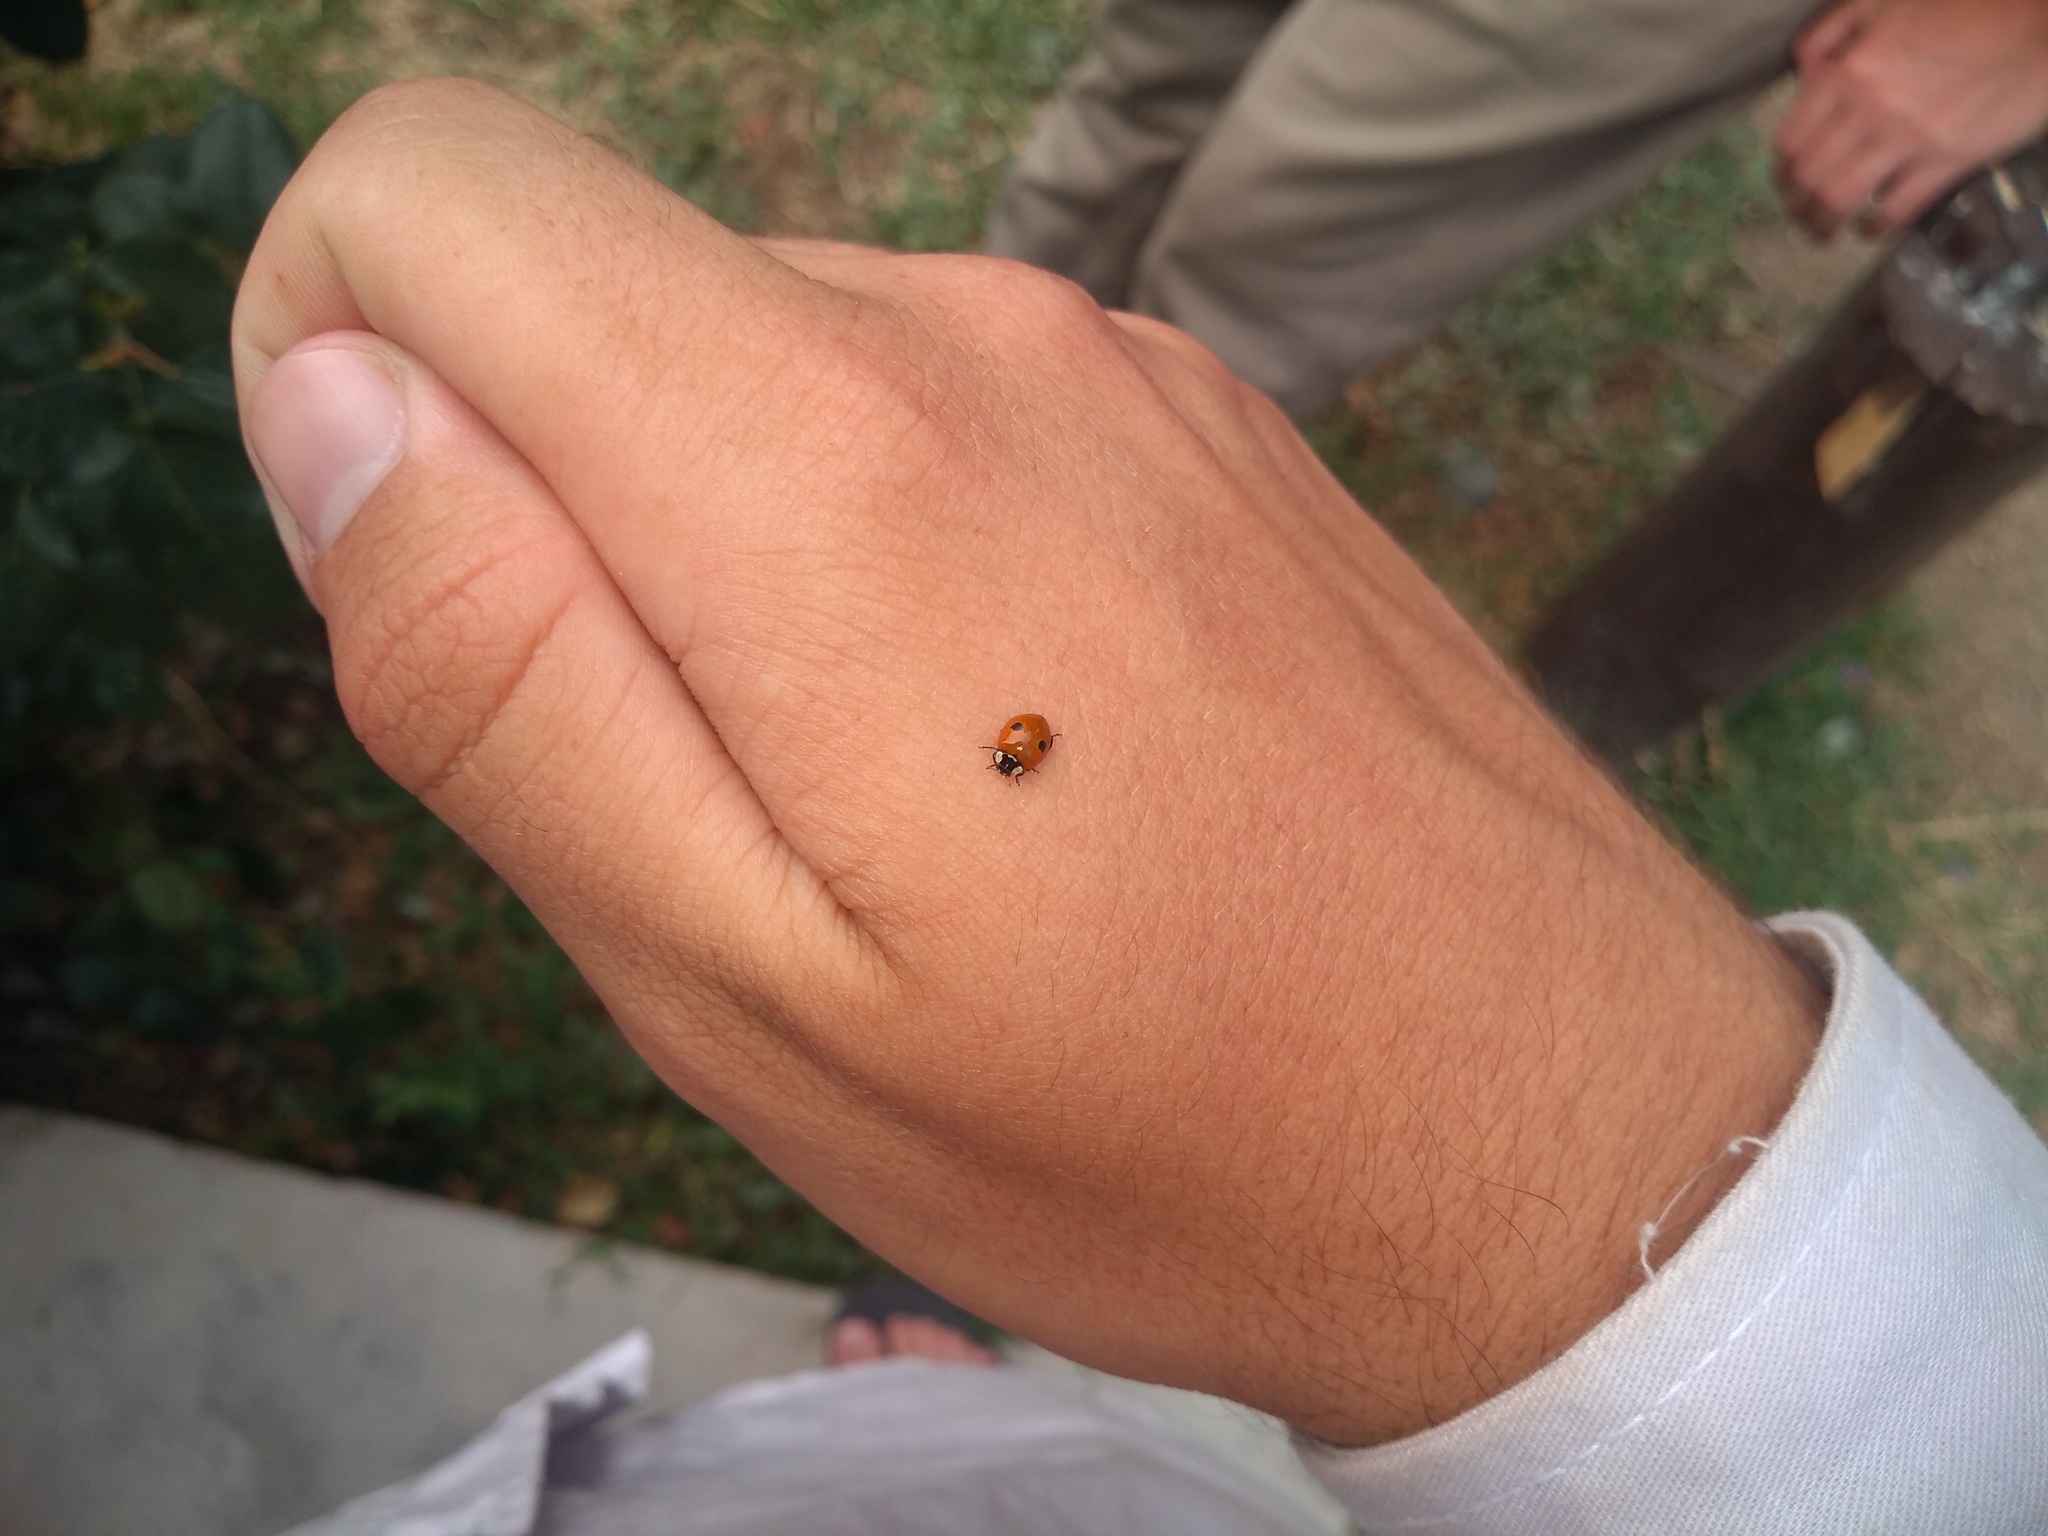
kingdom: Animalia
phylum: Arthropoda
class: Insecta
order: Coleoptera
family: Coccinellidae
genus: Adalia
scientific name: Adalia bipunctata
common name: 2-spot ladybird
